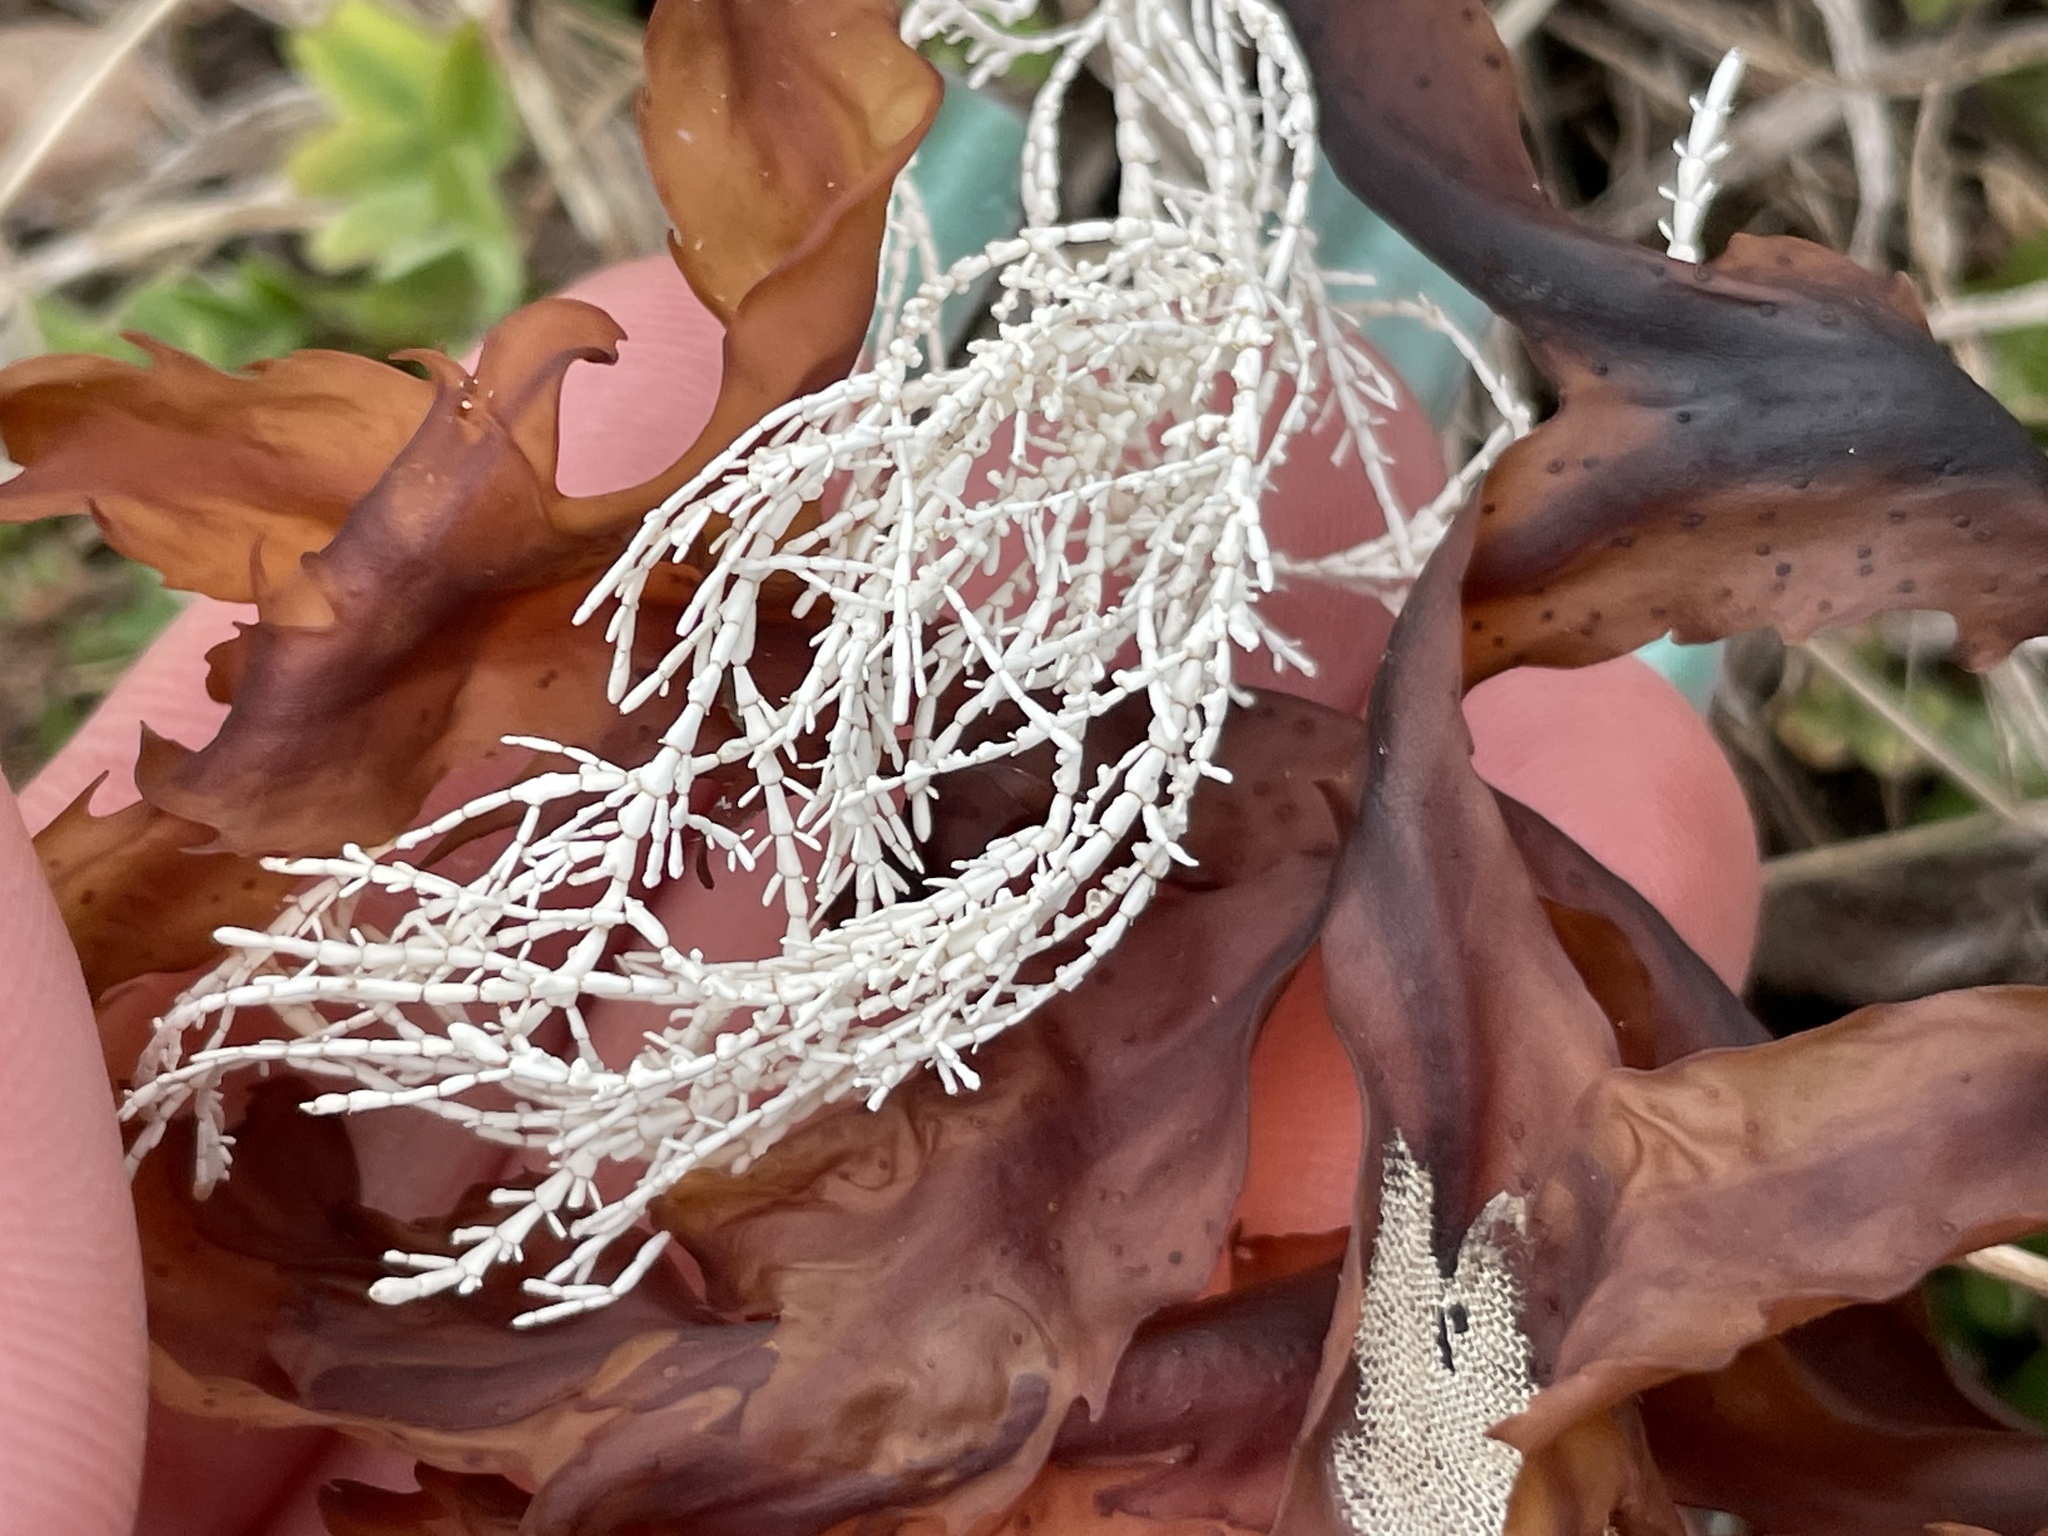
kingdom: Plantae
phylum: Rhodophyta
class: Florideophyceae
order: Corallinales
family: Corallinaceae
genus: Corallina
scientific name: Corallina officinalis
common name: Coral weed
